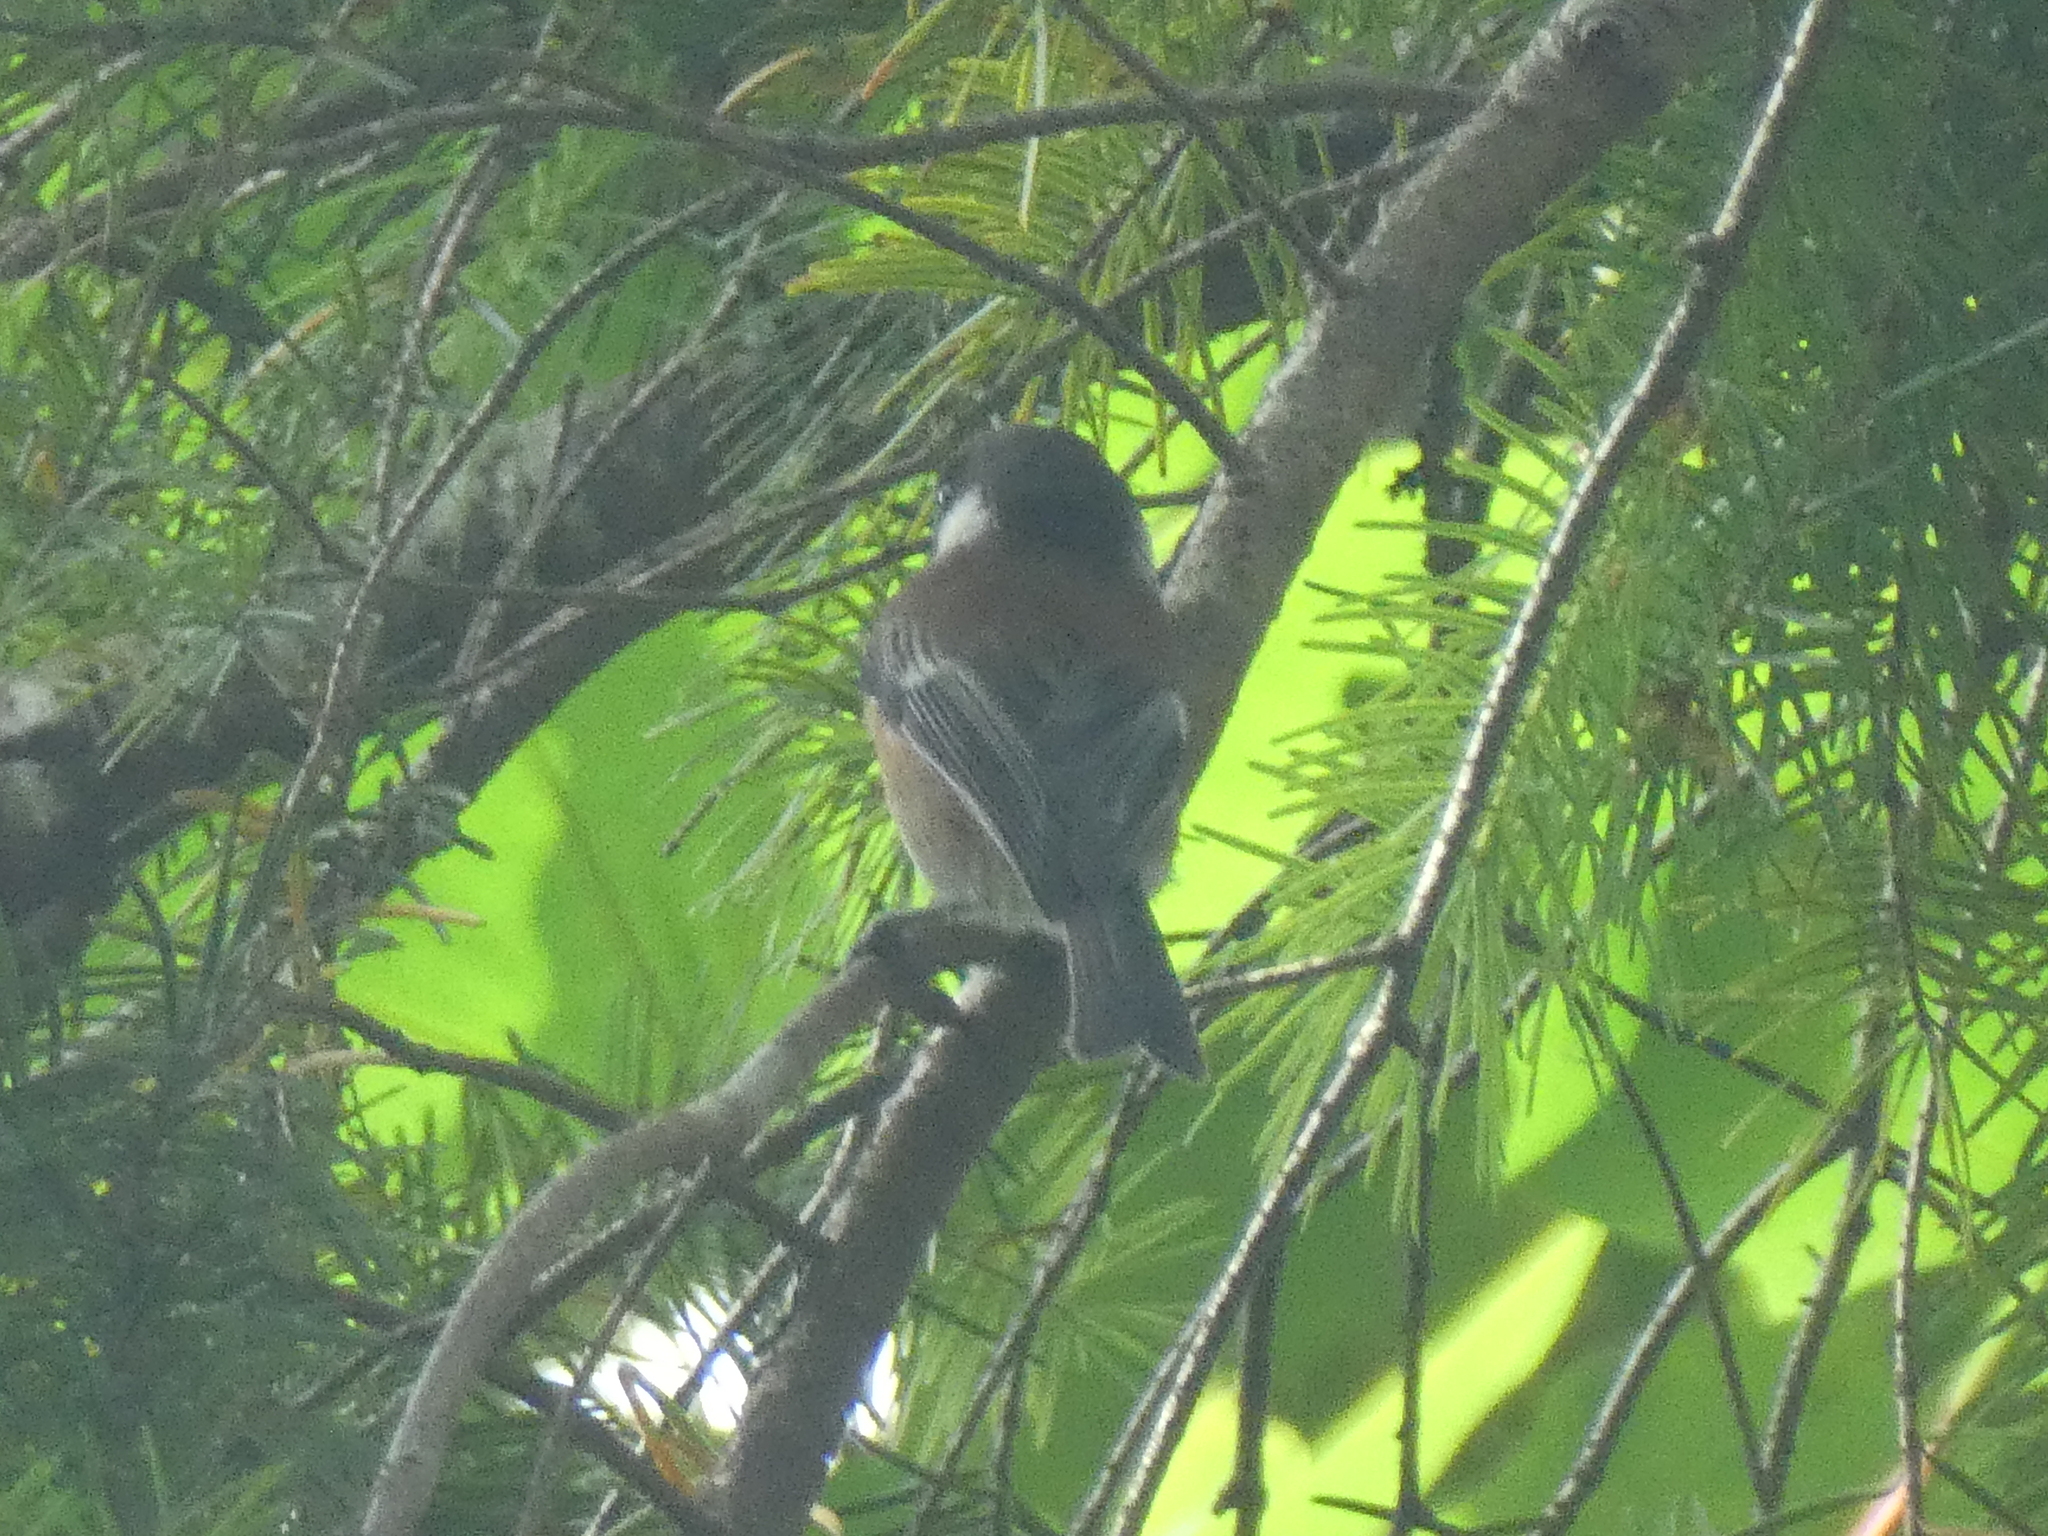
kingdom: Animalia
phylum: Chordata
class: Aves
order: Passeriformes
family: Paridae
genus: Poecile
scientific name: Poecile rufescens
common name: Chestnut-backed chickadee
